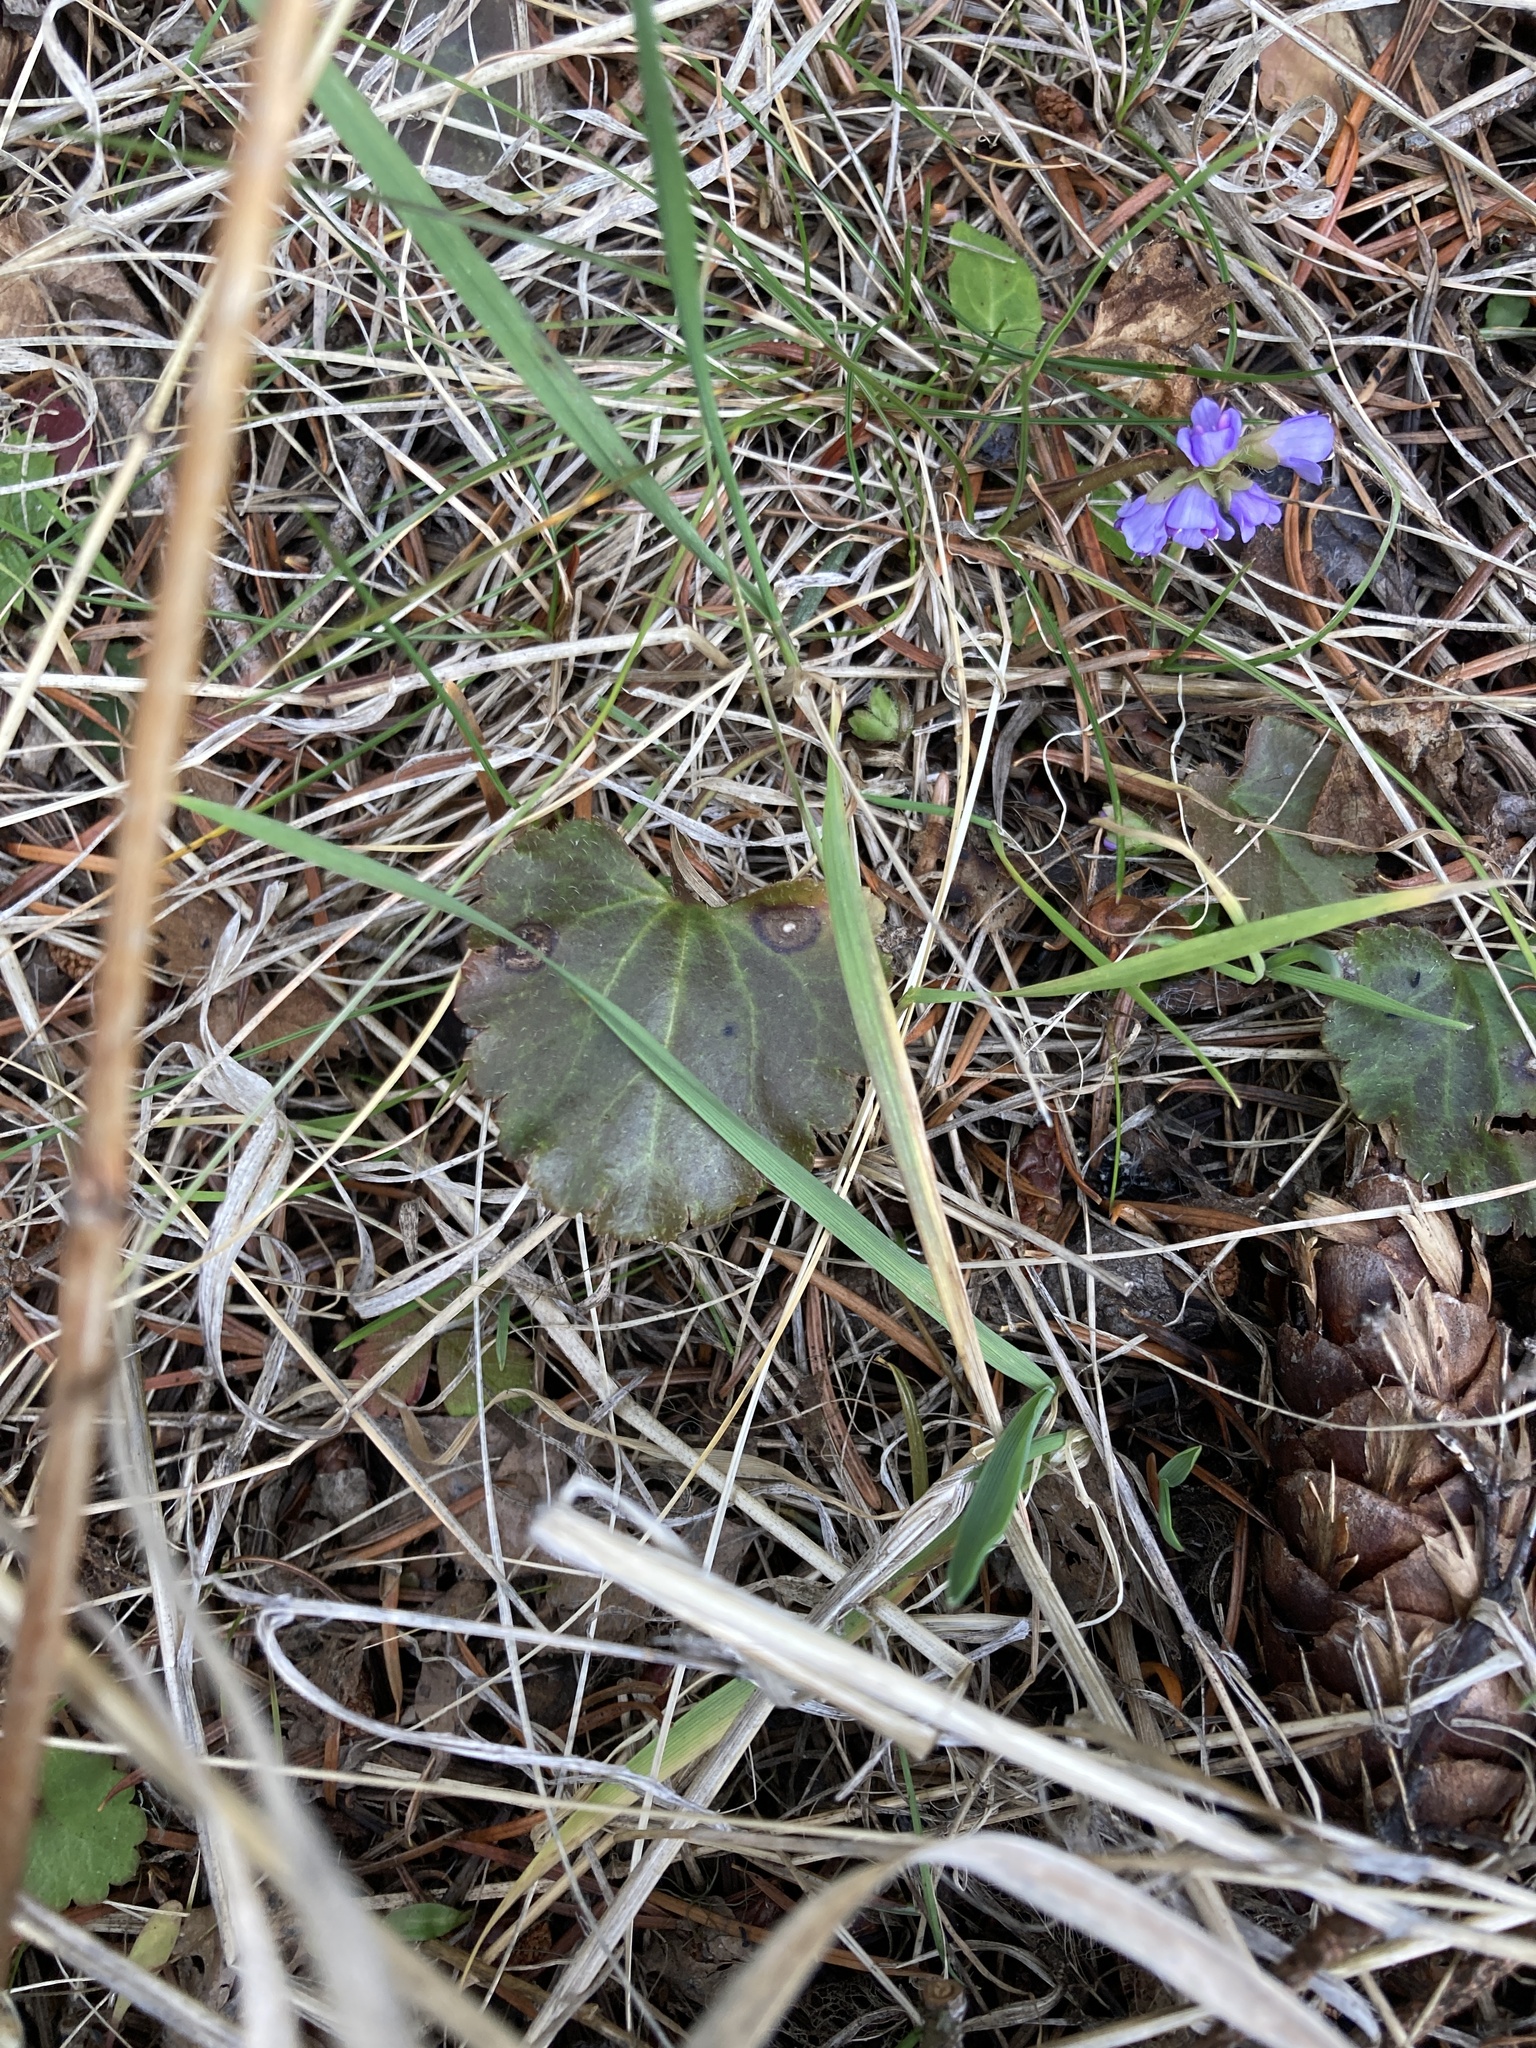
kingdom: Plantae
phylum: Tracheophyta
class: Magnoliopsida
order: Lamiales
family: Plantaginaceae
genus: Synthyris
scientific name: Synthyris reniformis
